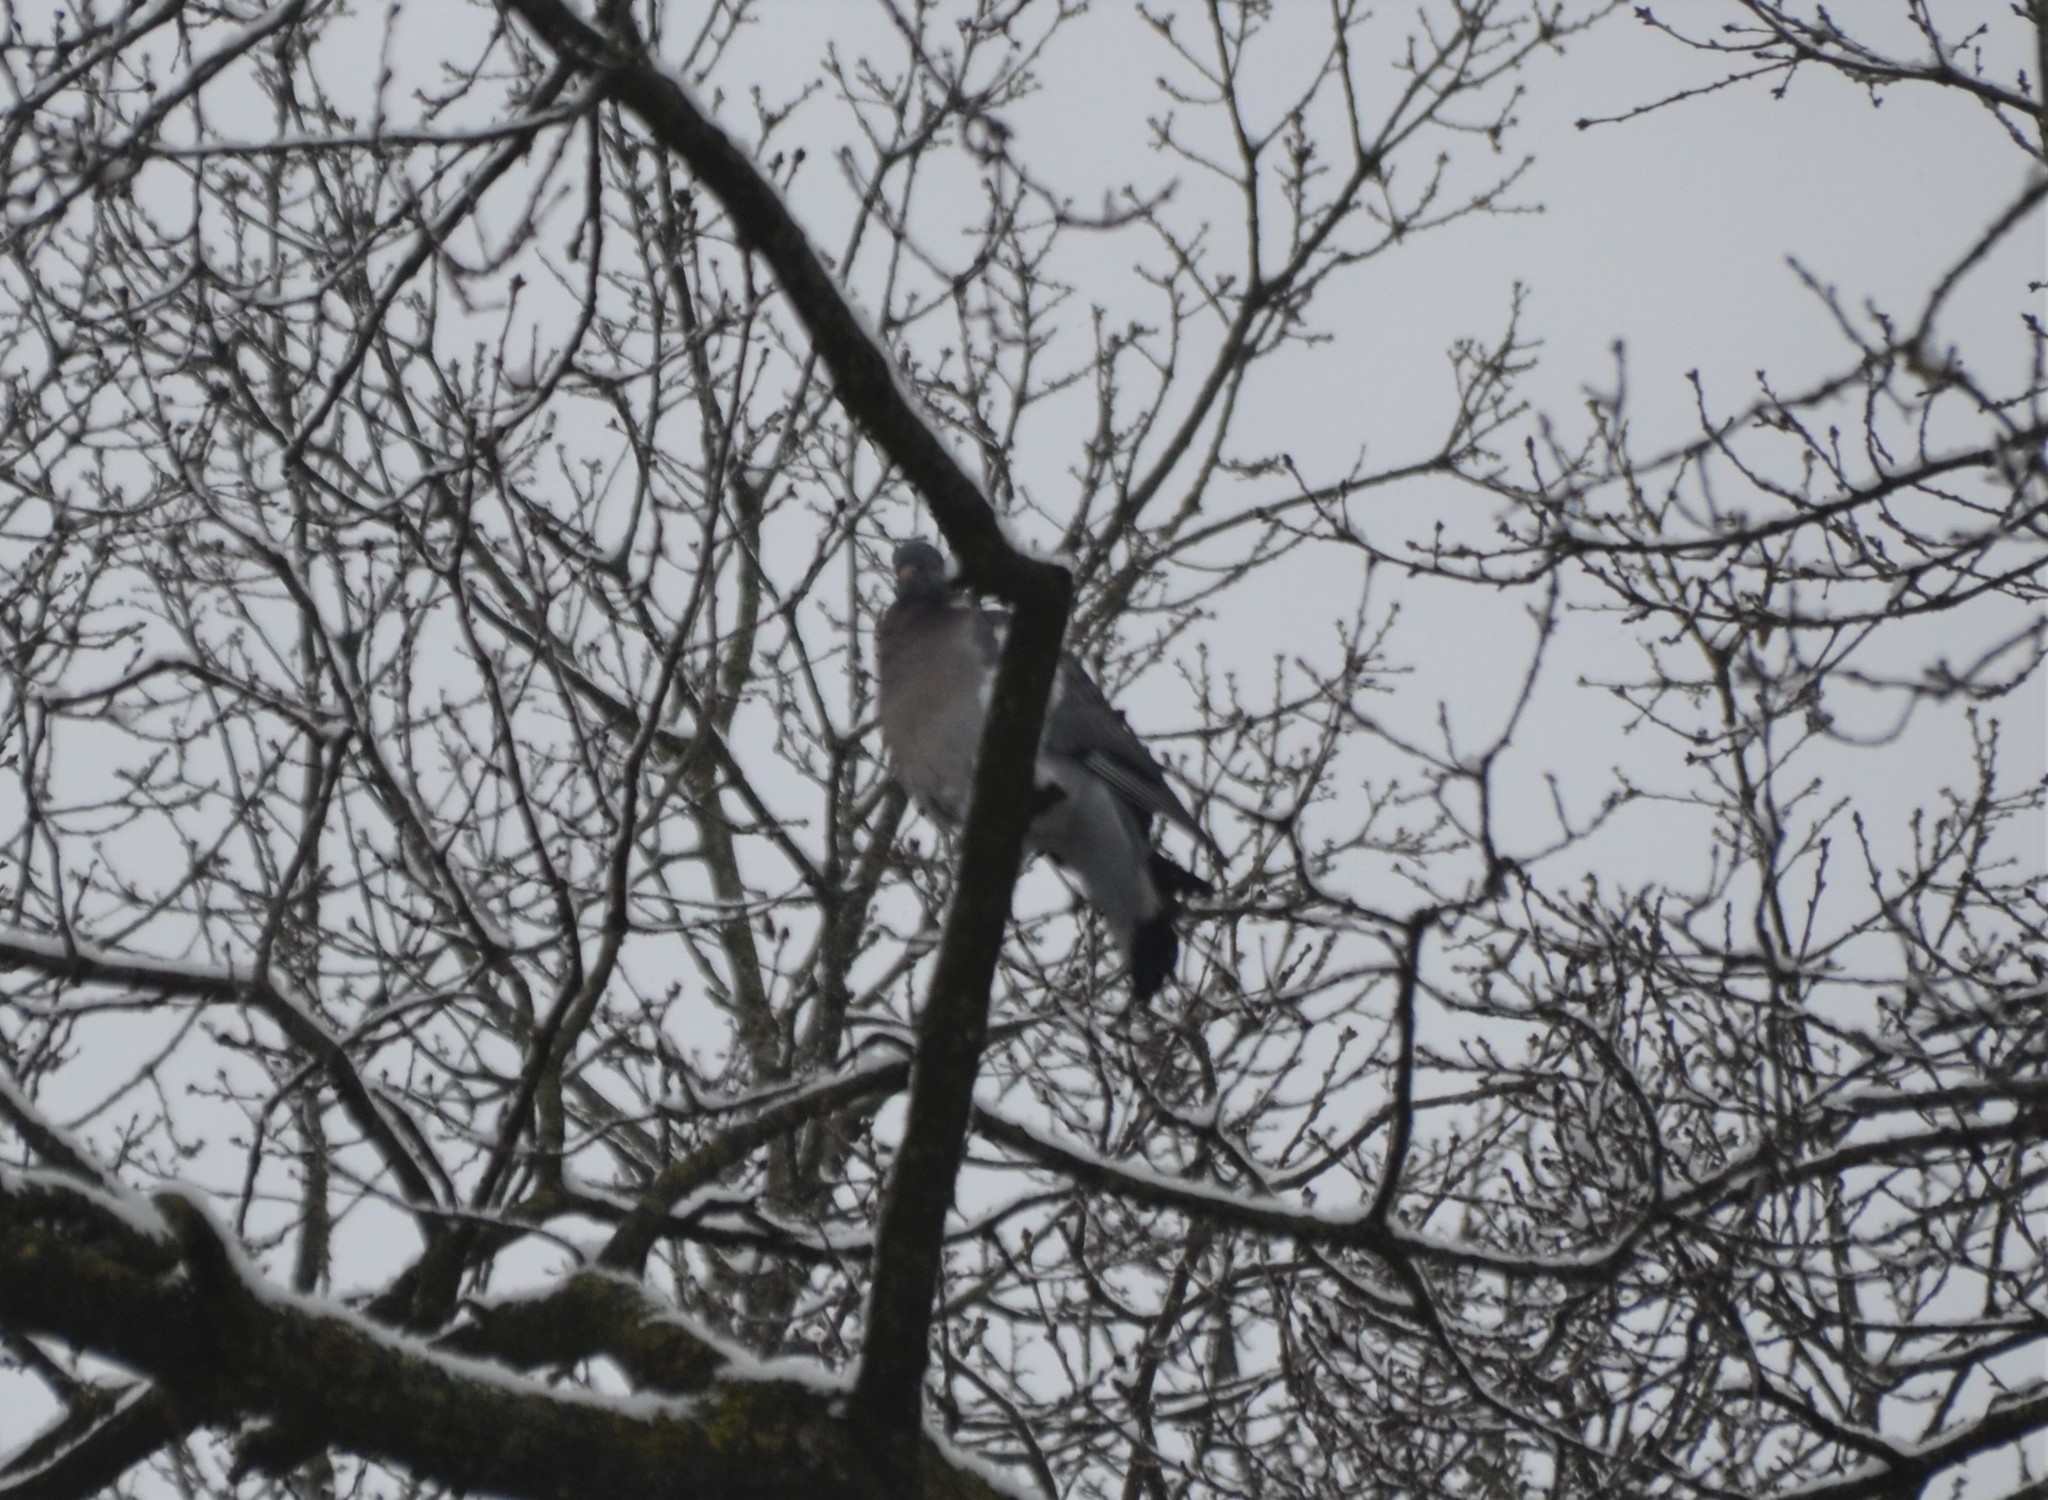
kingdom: Animalia
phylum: Chordata
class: Aves
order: Columbiformes
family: Columbidae
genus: Columba
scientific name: Columba palumbus
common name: Common wood pigeon
